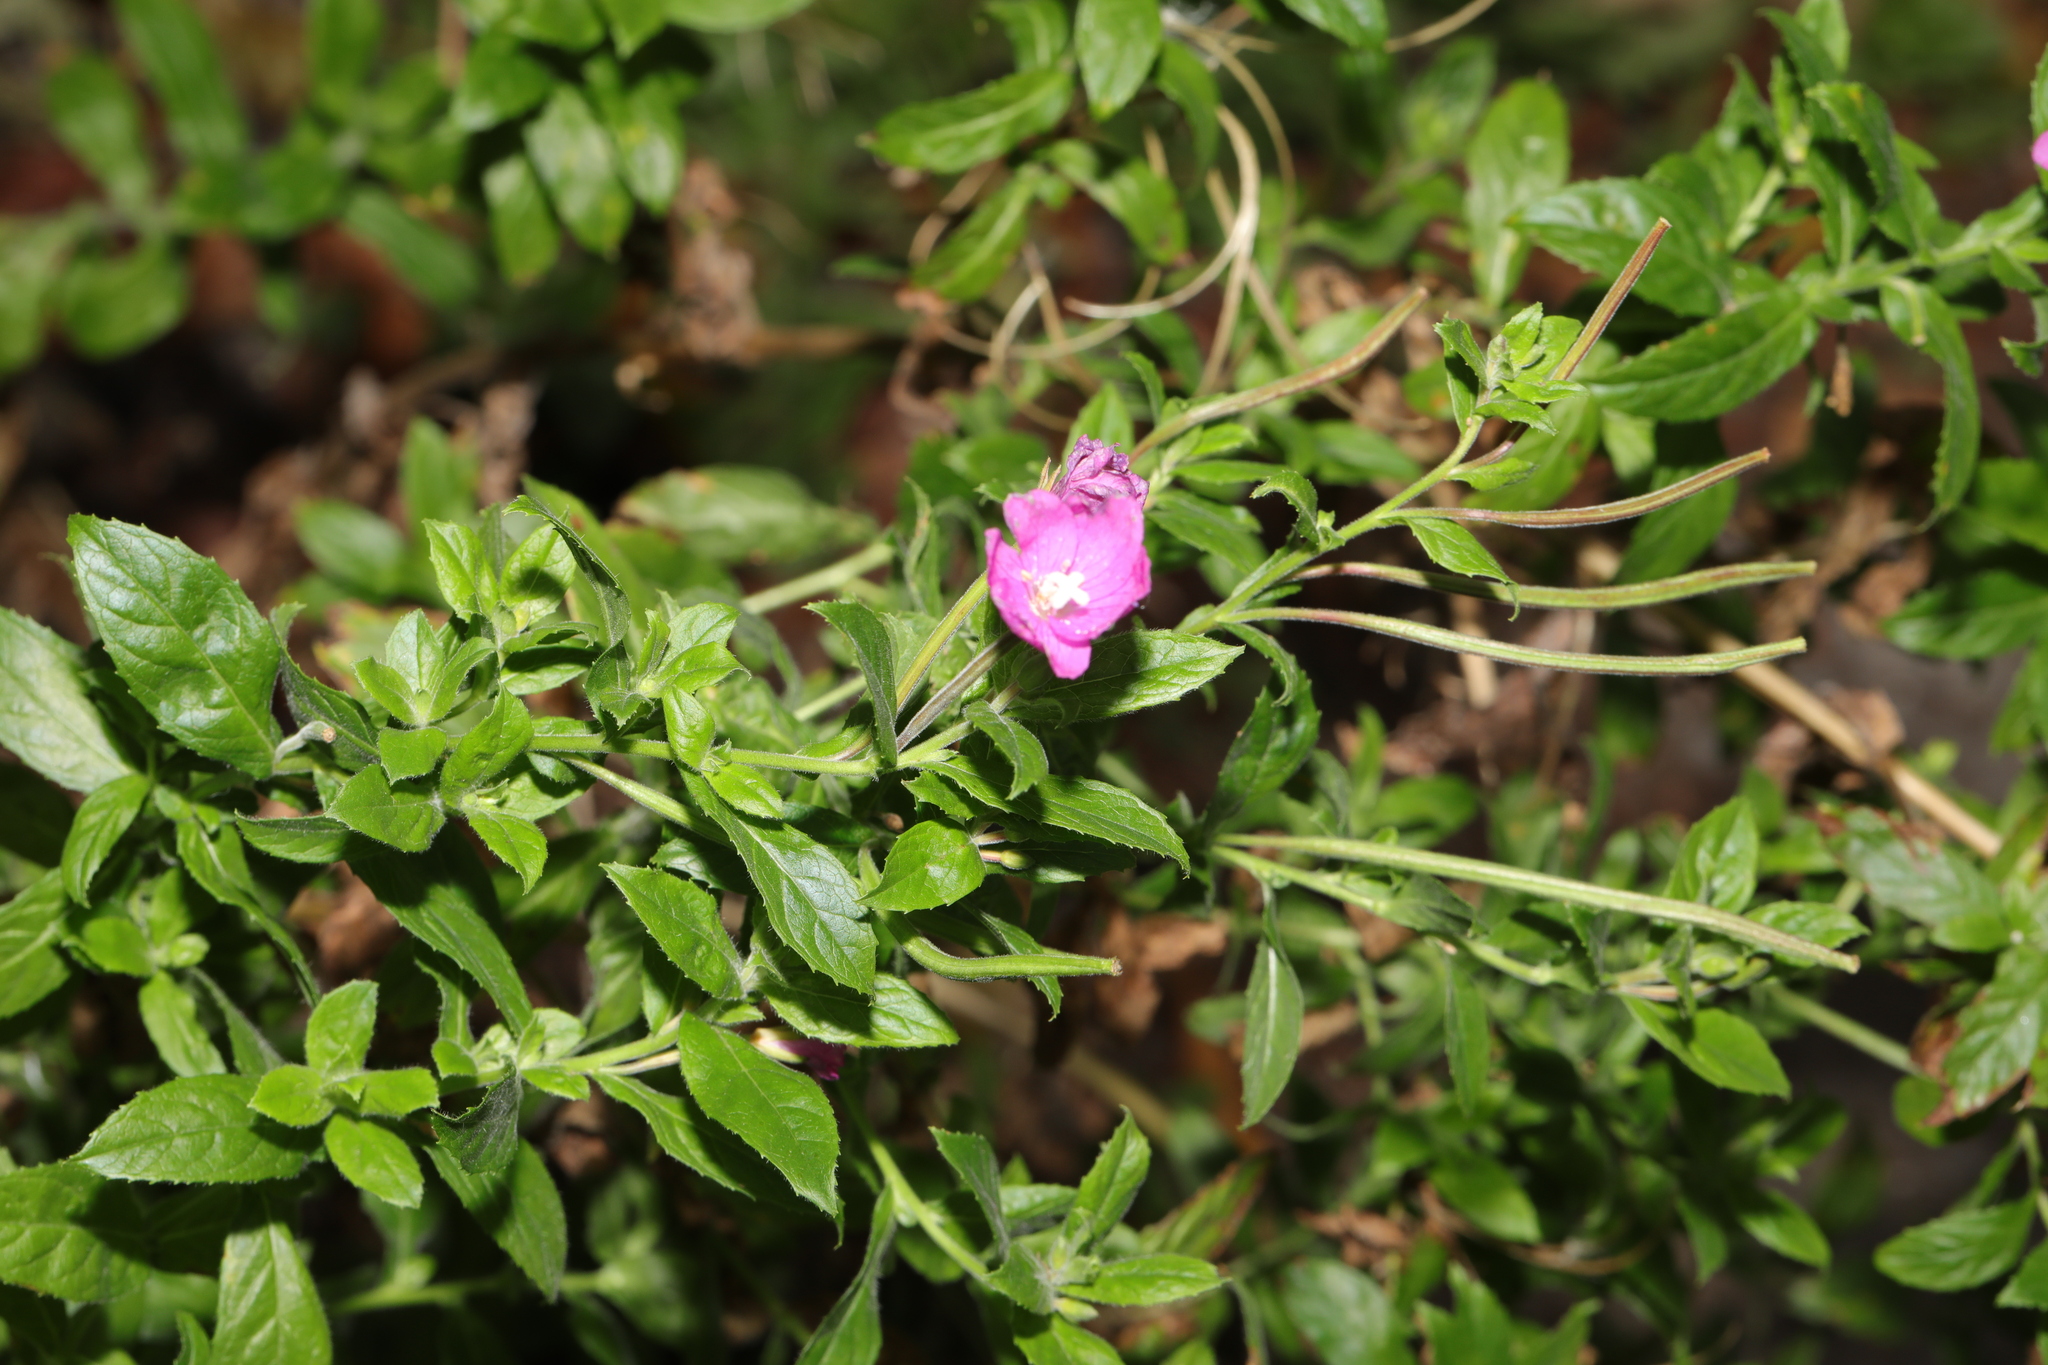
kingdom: Plantae
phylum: Tracheophyta
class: Magnoliopsida
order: Myrtales
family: Onagraceae
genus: Epilobium
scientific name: Epilobium hirsutum
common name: Great willowherb
